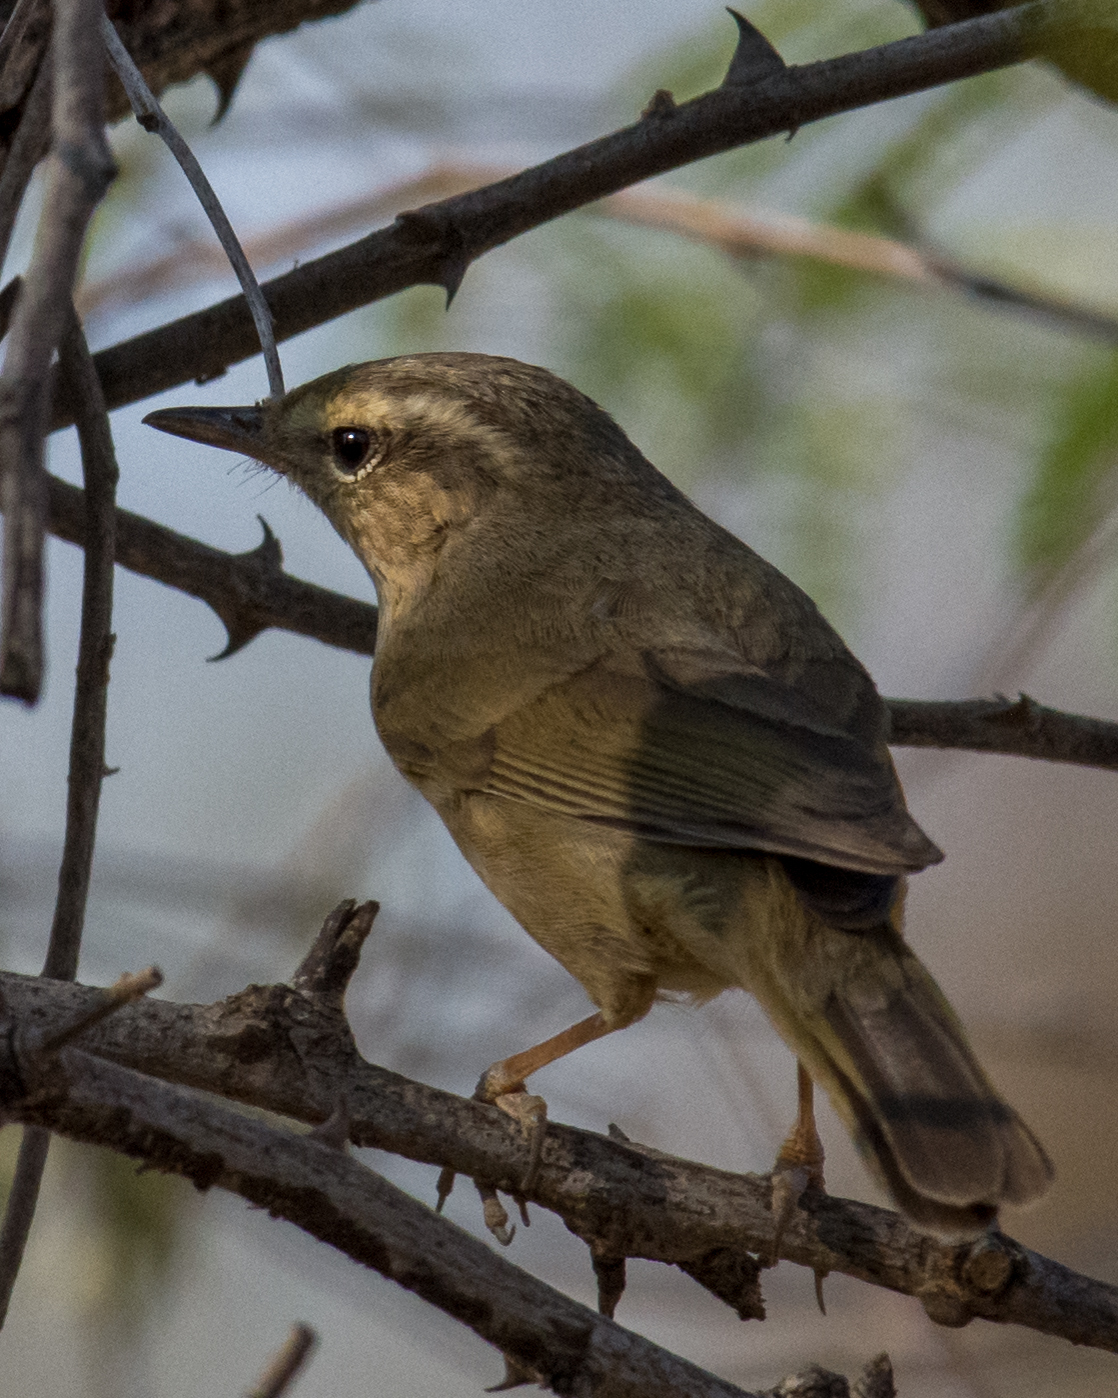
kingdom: Animalia
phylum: Chordata
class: Aves
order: Passeriformes
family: Phylloscopidae
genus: Phylloscopus
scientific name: Phylloscopus armandii
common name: Yellow-streaked warbler
